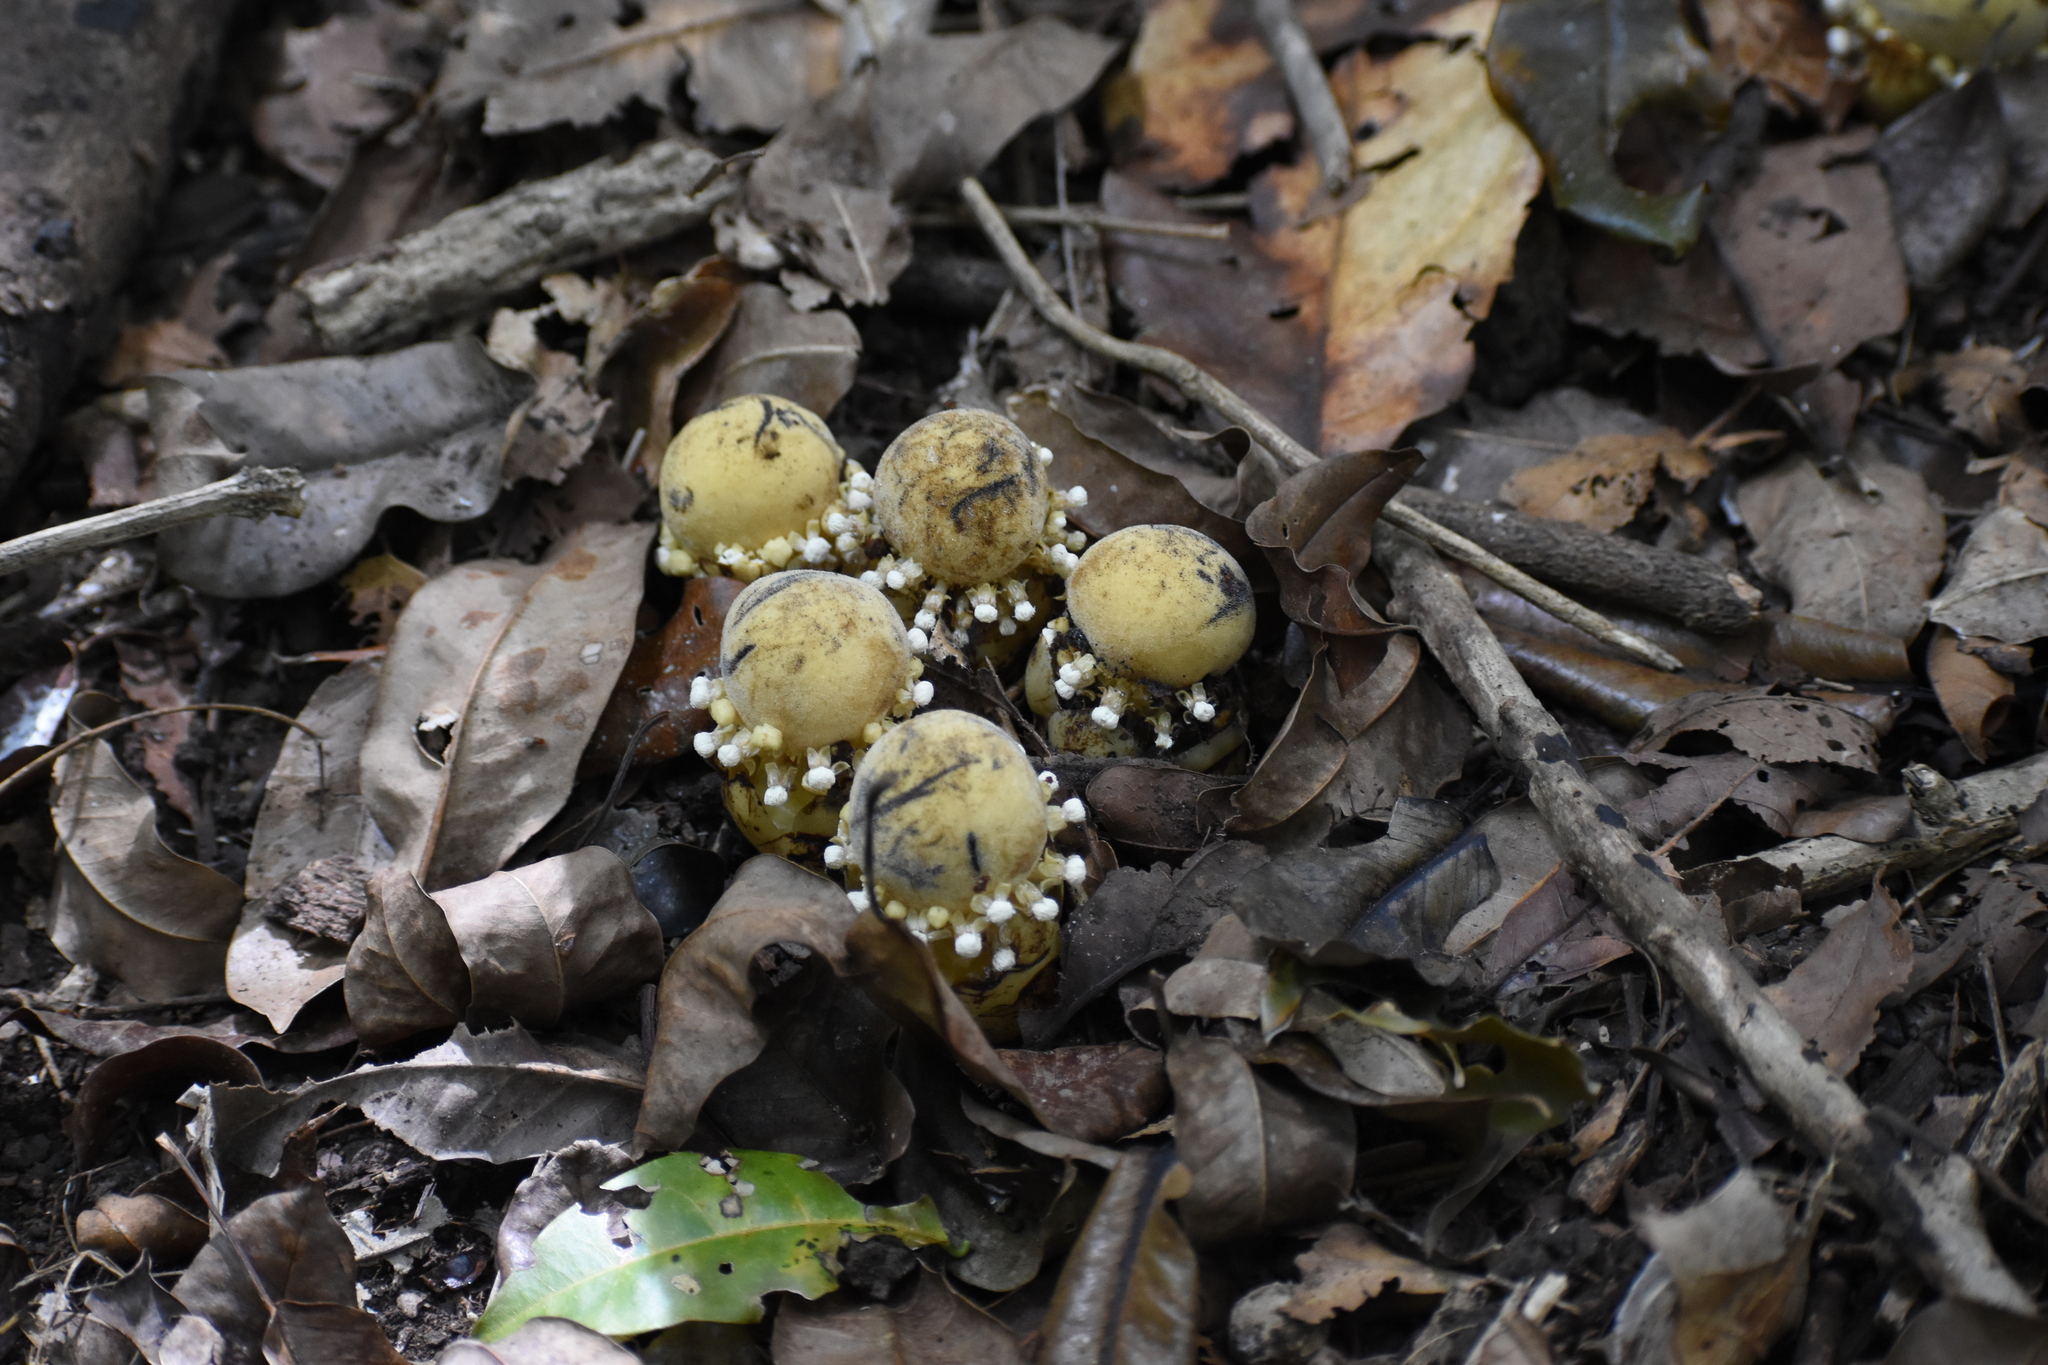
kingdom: Plantae
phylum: Tracheophyta
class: Magnoliopsida
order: Santalales
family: Balanophoraceae
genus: Balanophora
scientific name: Balanophora fungosa
